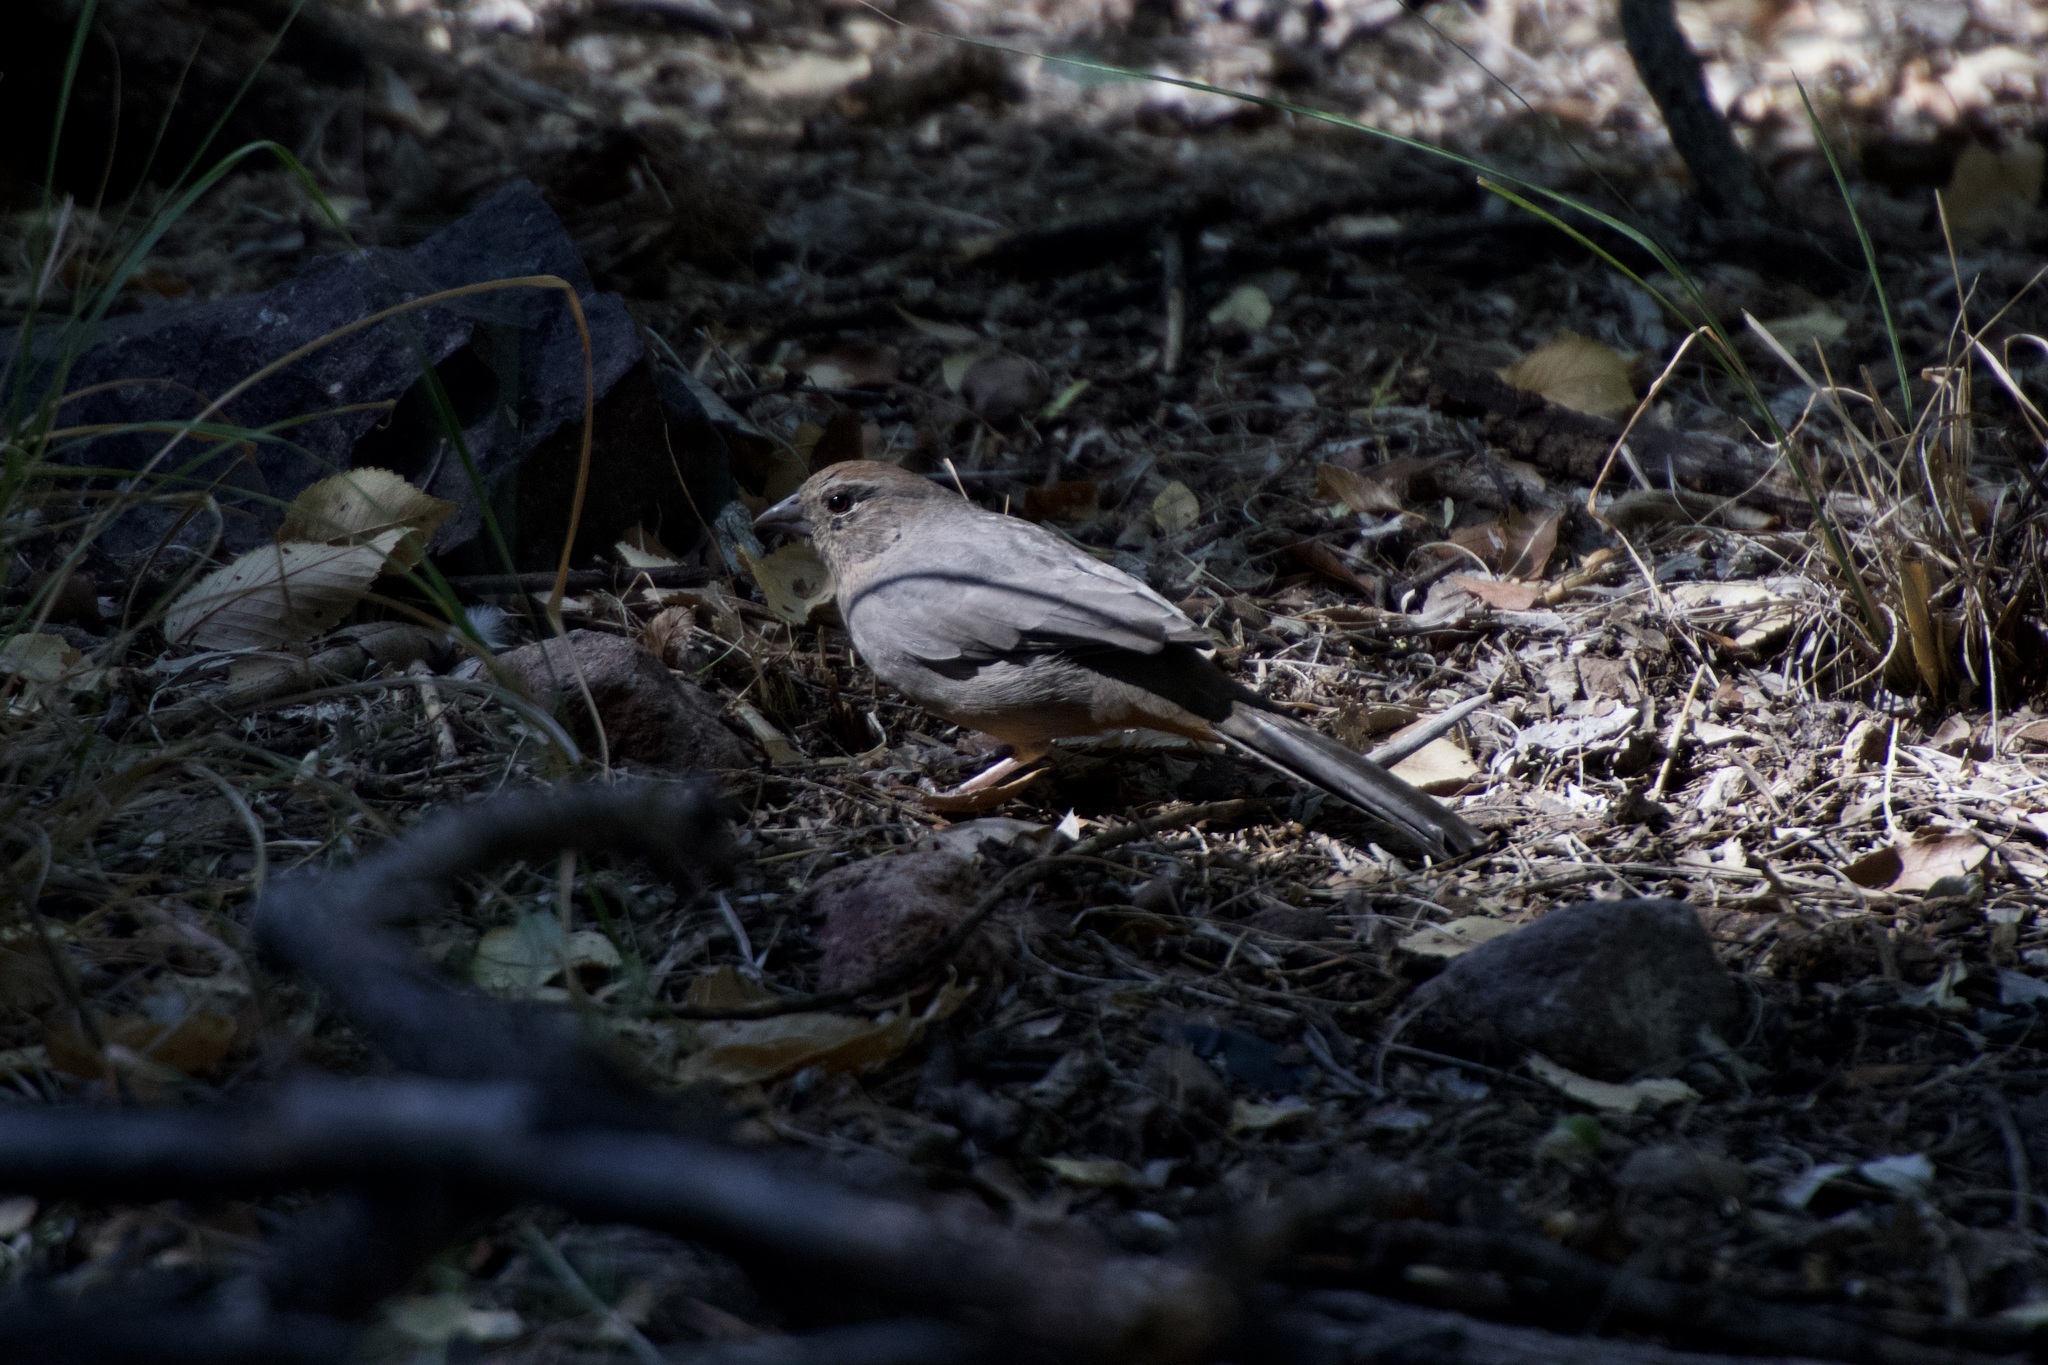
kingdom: Animalia
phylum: Chordata
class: Aves
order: Passeriformes
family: Passerellidae
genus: Melozone
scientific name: Melozone fusca
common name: Canyon towhee
